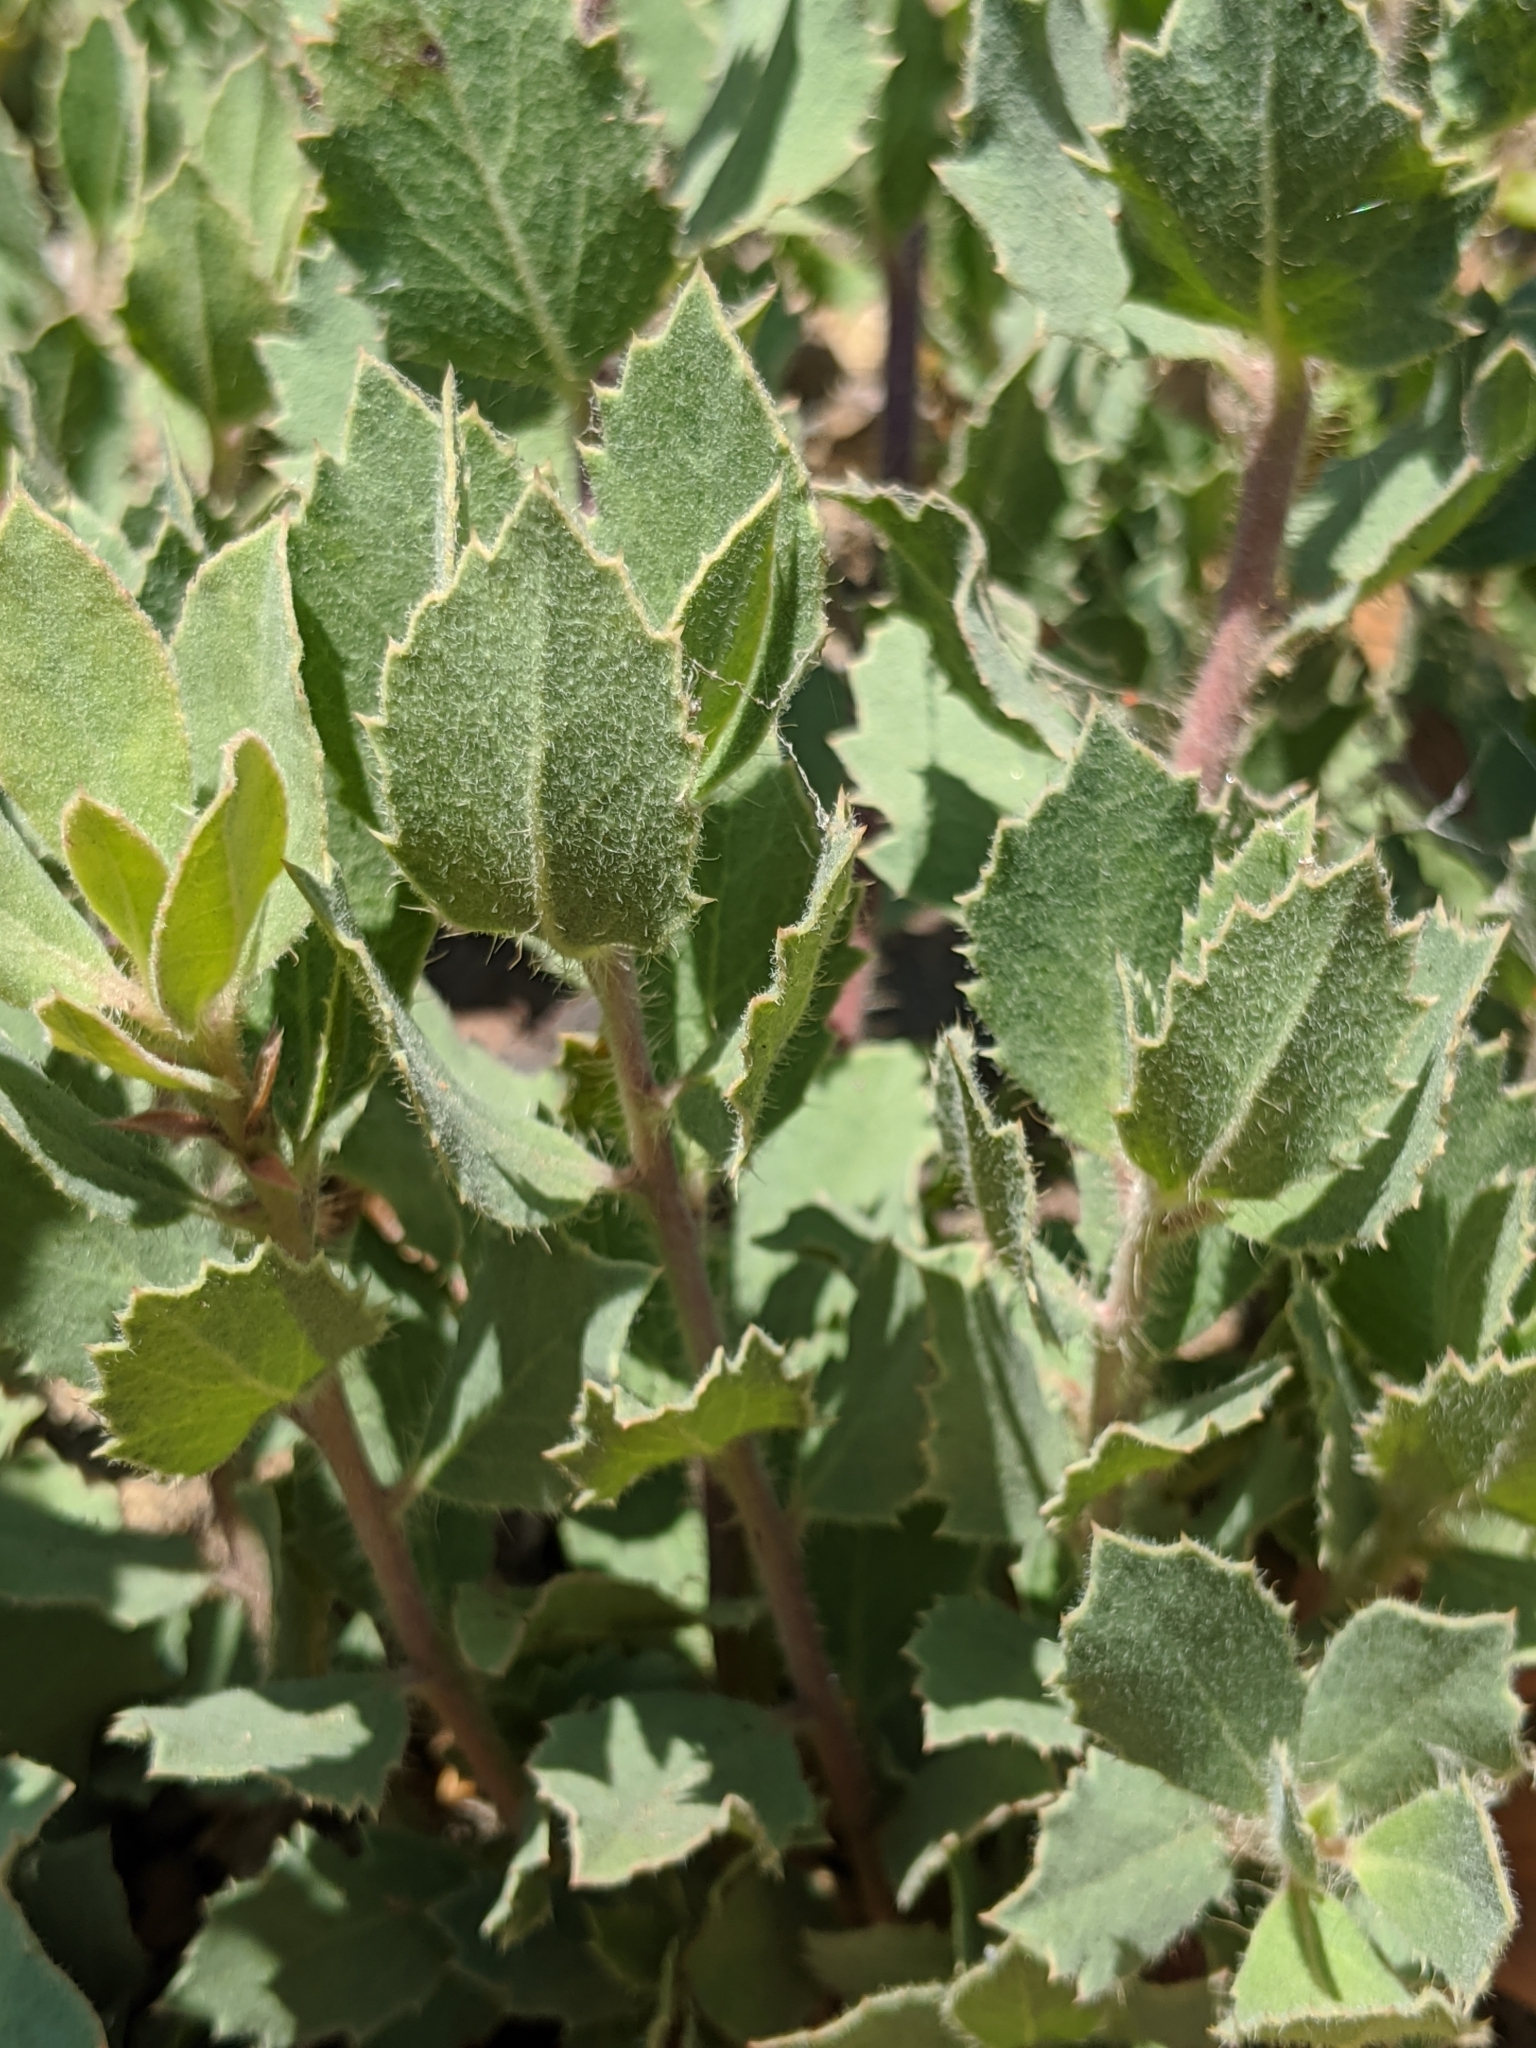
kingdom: Plantae
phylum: Tracheophyta
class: Magnoliopsida
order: Ericales
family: Ericaceae
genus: Arctostaphylos
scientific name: Arctostaphylos glandulosa
